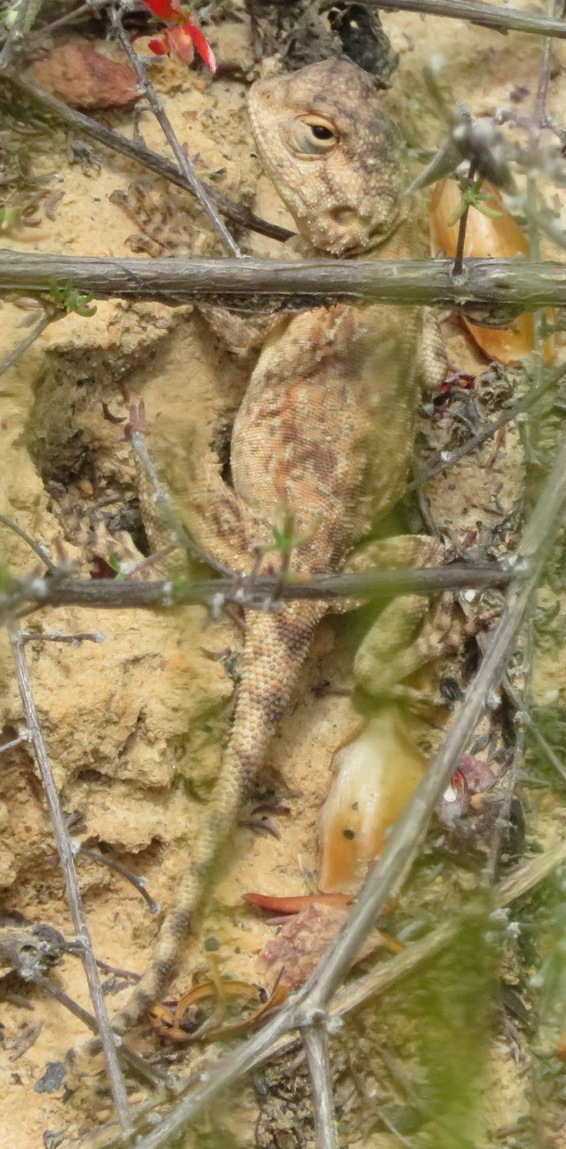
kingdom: Animalia
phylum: Chordata
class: Squamata
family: Agamidae
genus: Agama
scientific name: Agama atra
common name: Southern african rock agama
